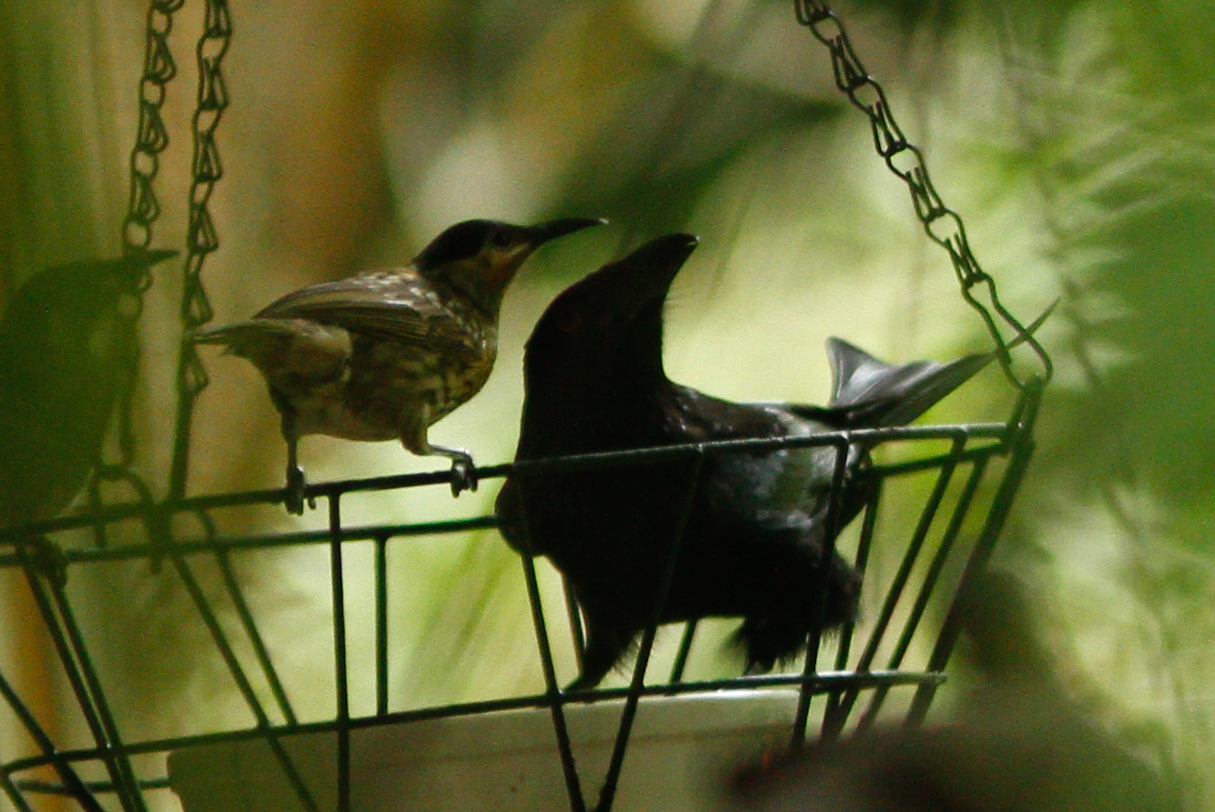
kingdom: Animalia
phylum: Chordata
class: Aves
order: Passeriformes
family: Dicruridae
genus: Dicrurus
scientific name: Dicrurus bracteatus
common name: Spangled drongo
